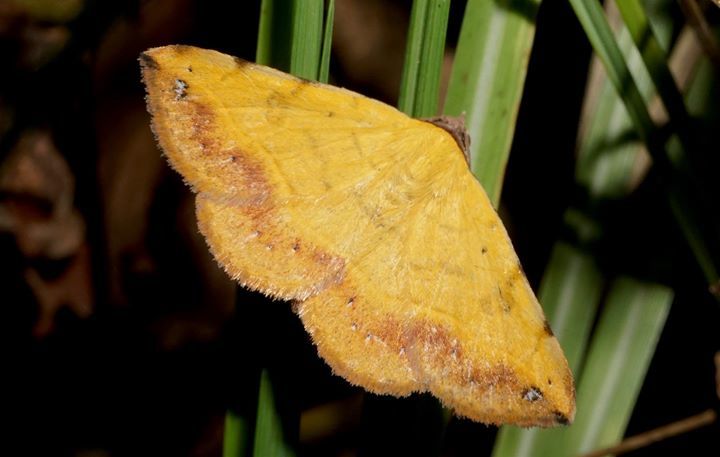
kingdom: Animalia
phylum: Arthropoda
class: Insecta
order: Lepidoptera
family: Erebidae
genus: Hemeroplanis
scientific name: Hemeroplanis scopulepes
